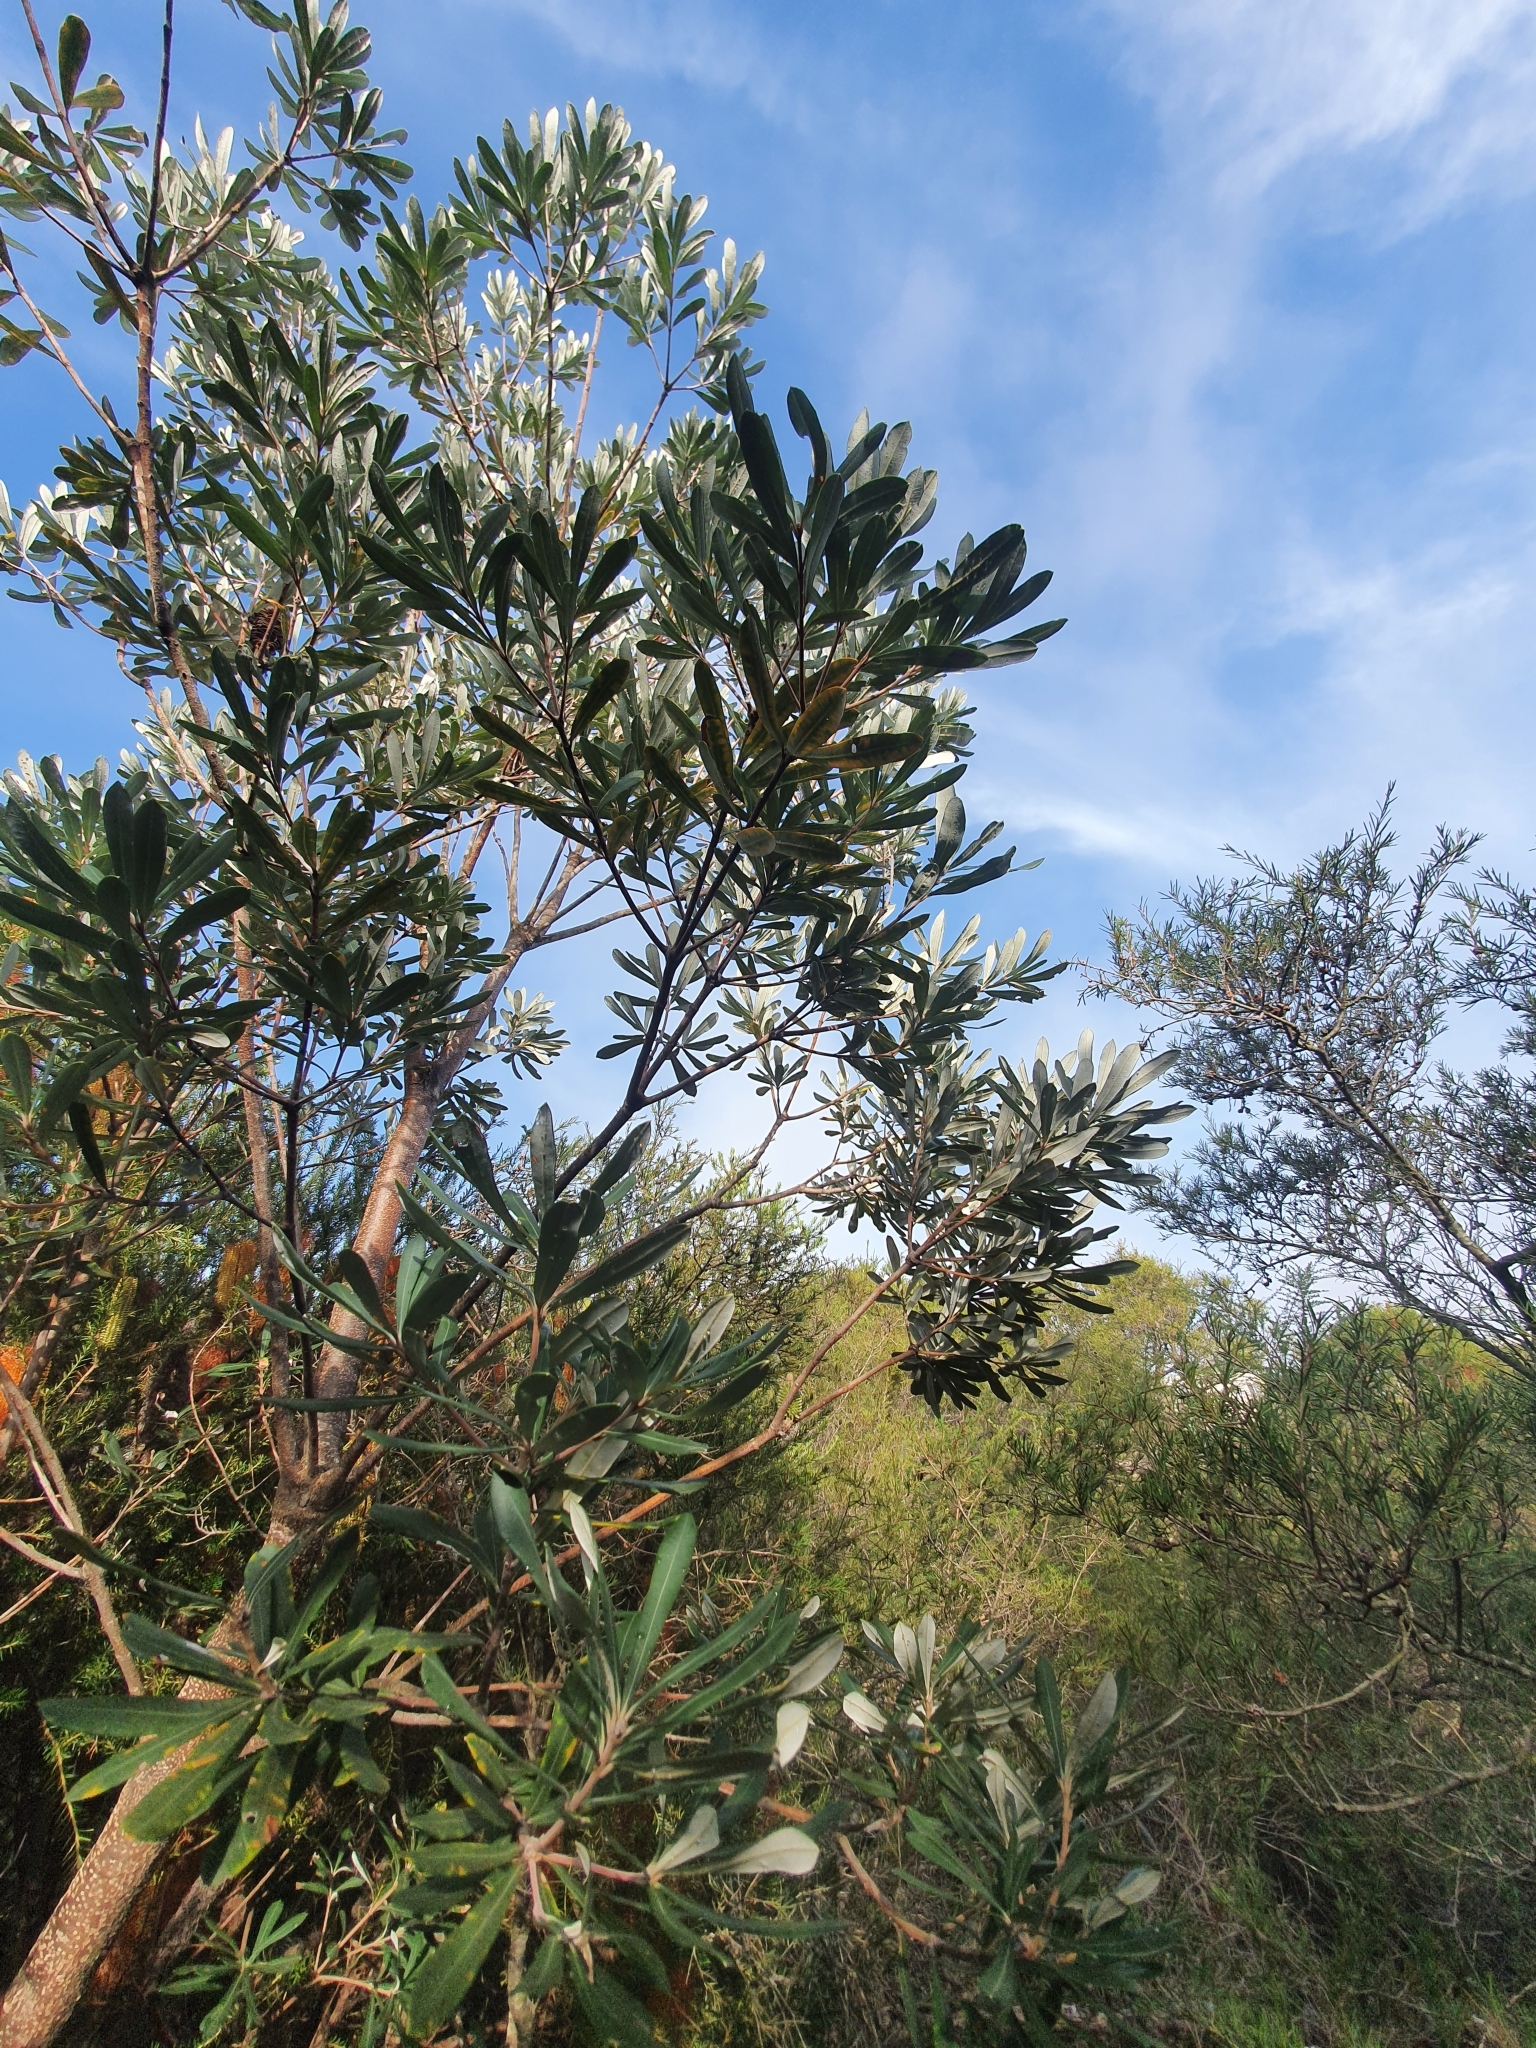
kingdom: Plantae
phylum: Tracheophyta
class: Magnoliopsida
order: Proteales
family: Proteaceae
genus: Banksia
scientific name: Banksia integrifolia
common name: White-honeysuckle
